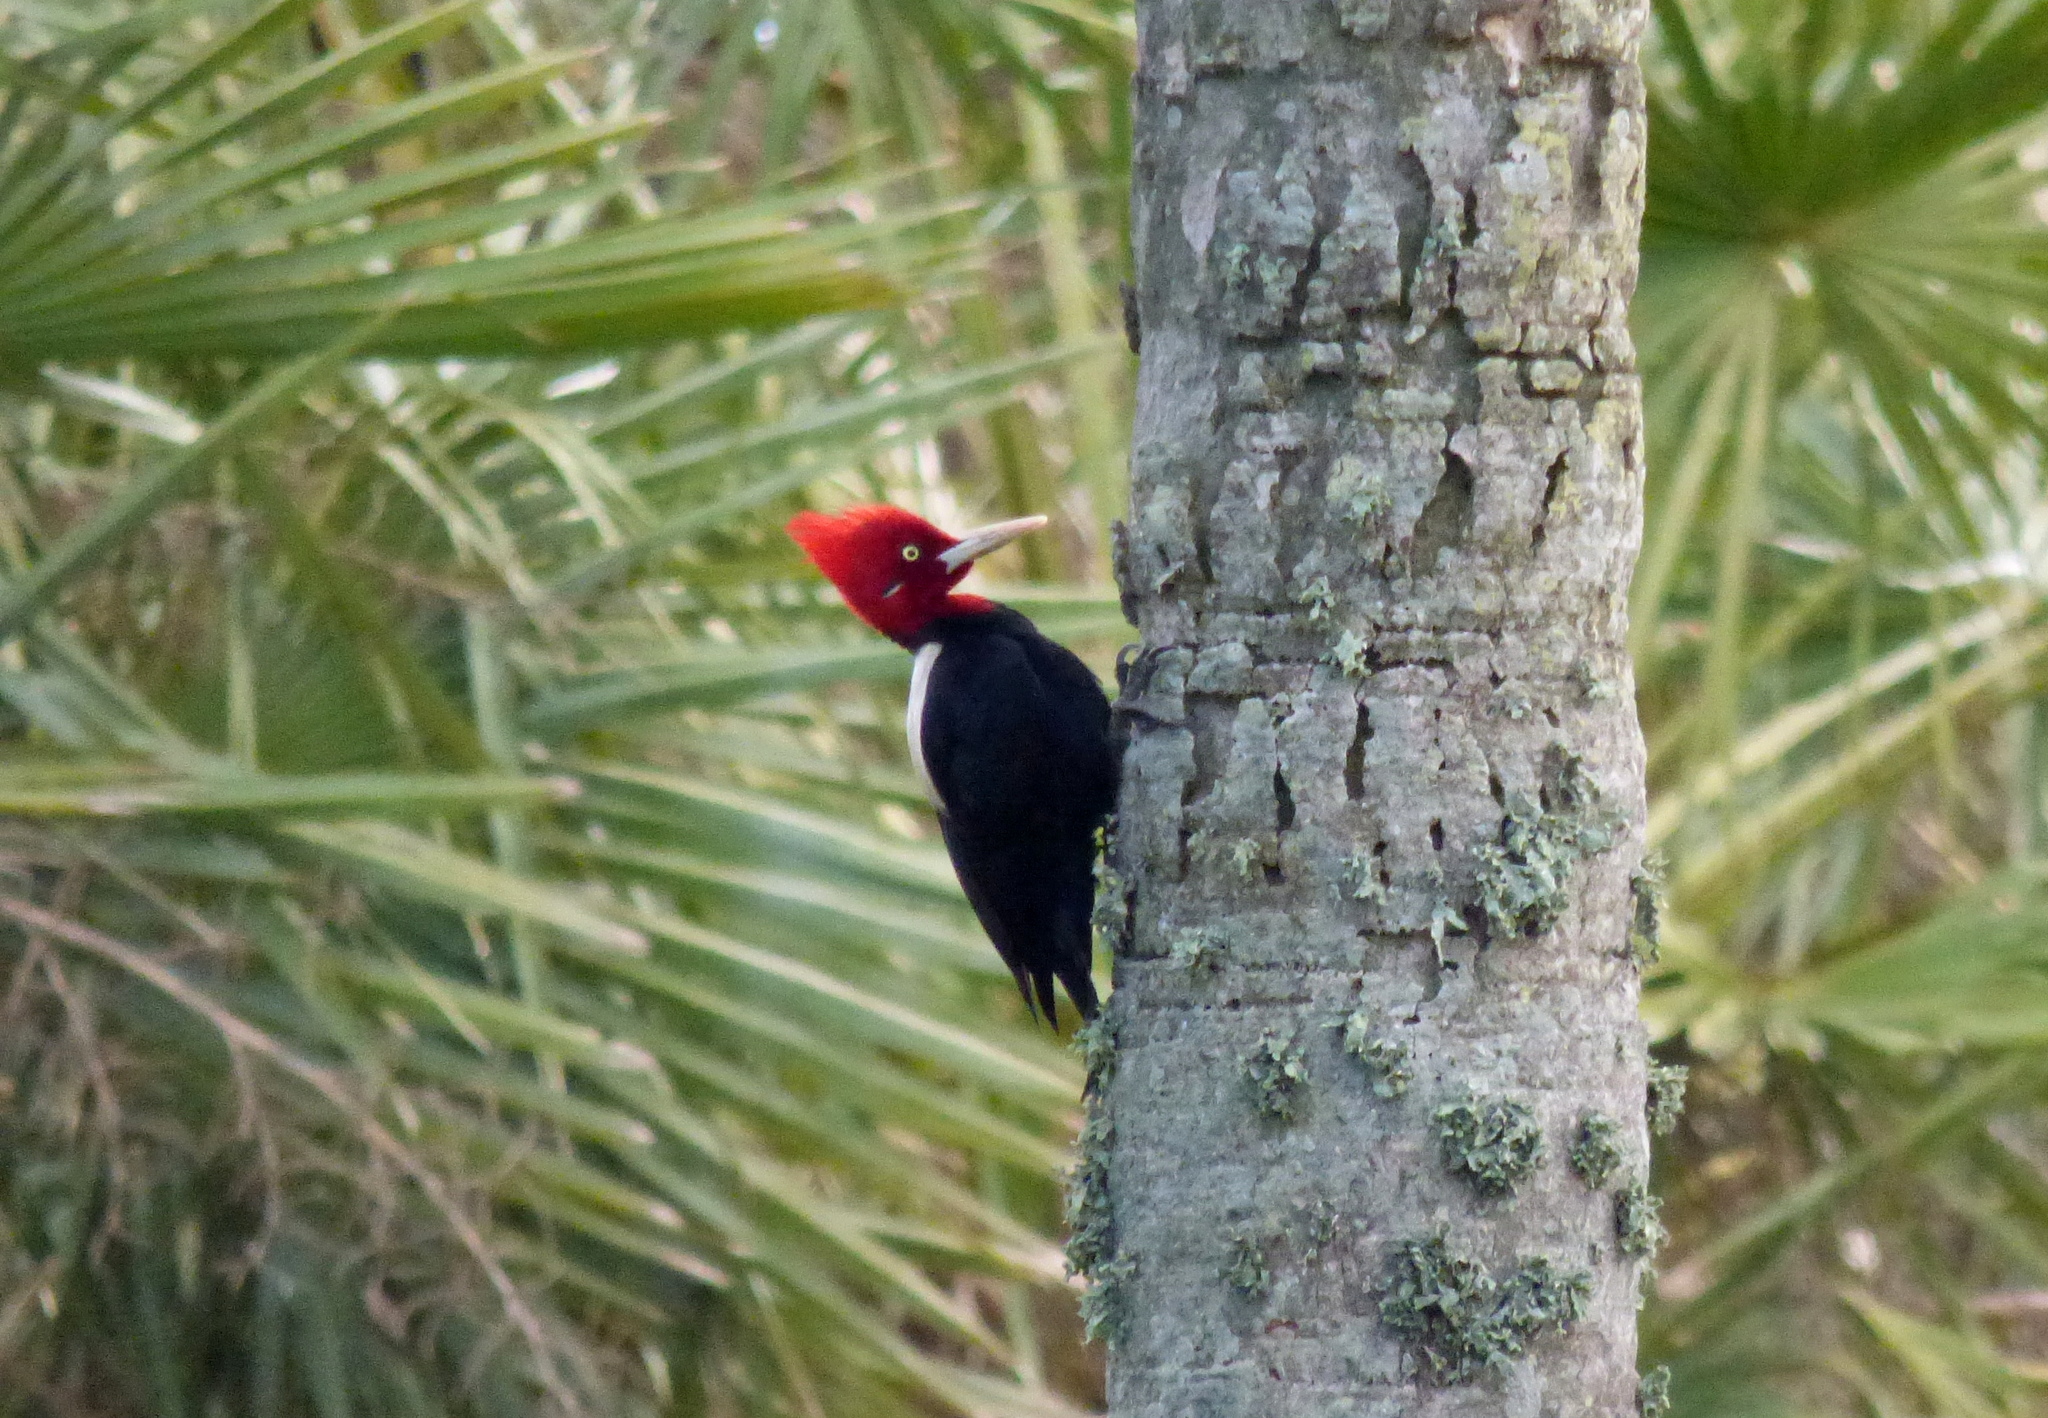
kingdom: Animalia
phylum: Chordata
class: Aves
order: Piciformes
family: Picidae
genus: Campephilus
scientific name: Campephilus leucopogon
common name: Cream-backed woodpecker
